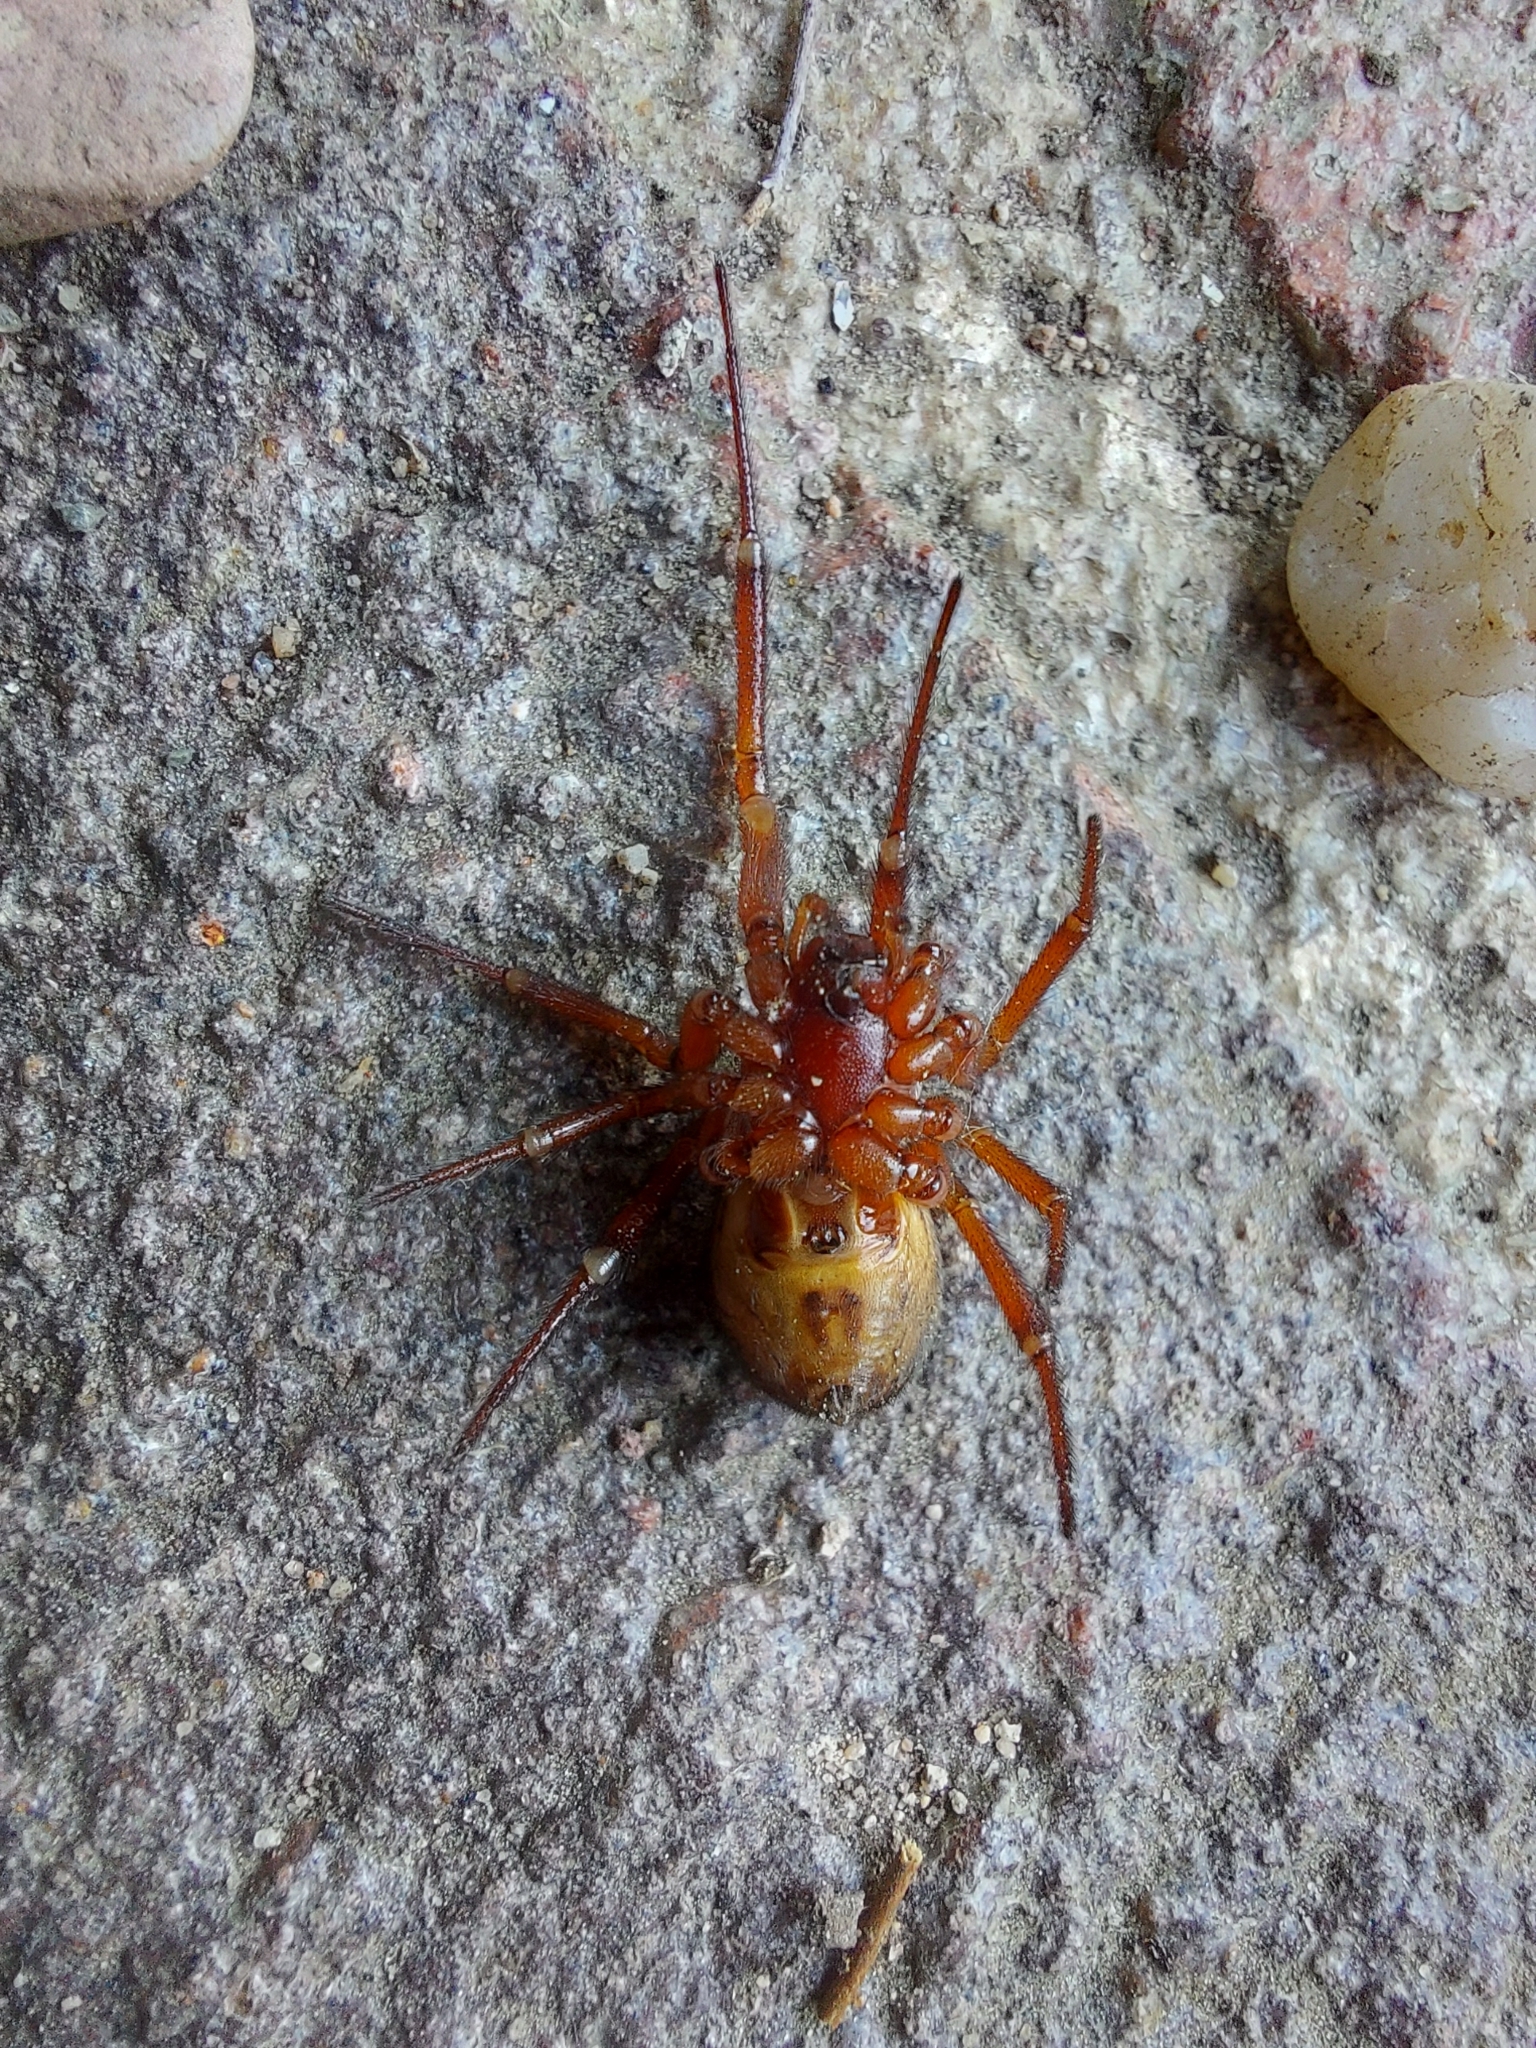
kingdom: Animalia
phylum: Arthropoda
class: Arachnida
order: Araneae
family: Theridiidae
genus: Steatoda
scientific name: Steatoda nobilis
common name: Cobweb weaver
